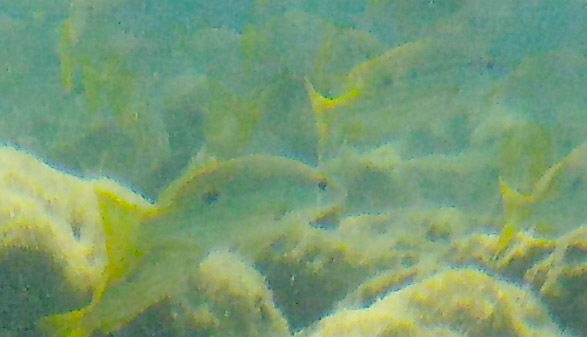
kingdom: Animalia
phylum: Chordata
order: Perciformes
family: Lutjanidae
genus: Lutjanus
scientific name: Lutjanus fulviflamma
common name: Blackspot snapper
